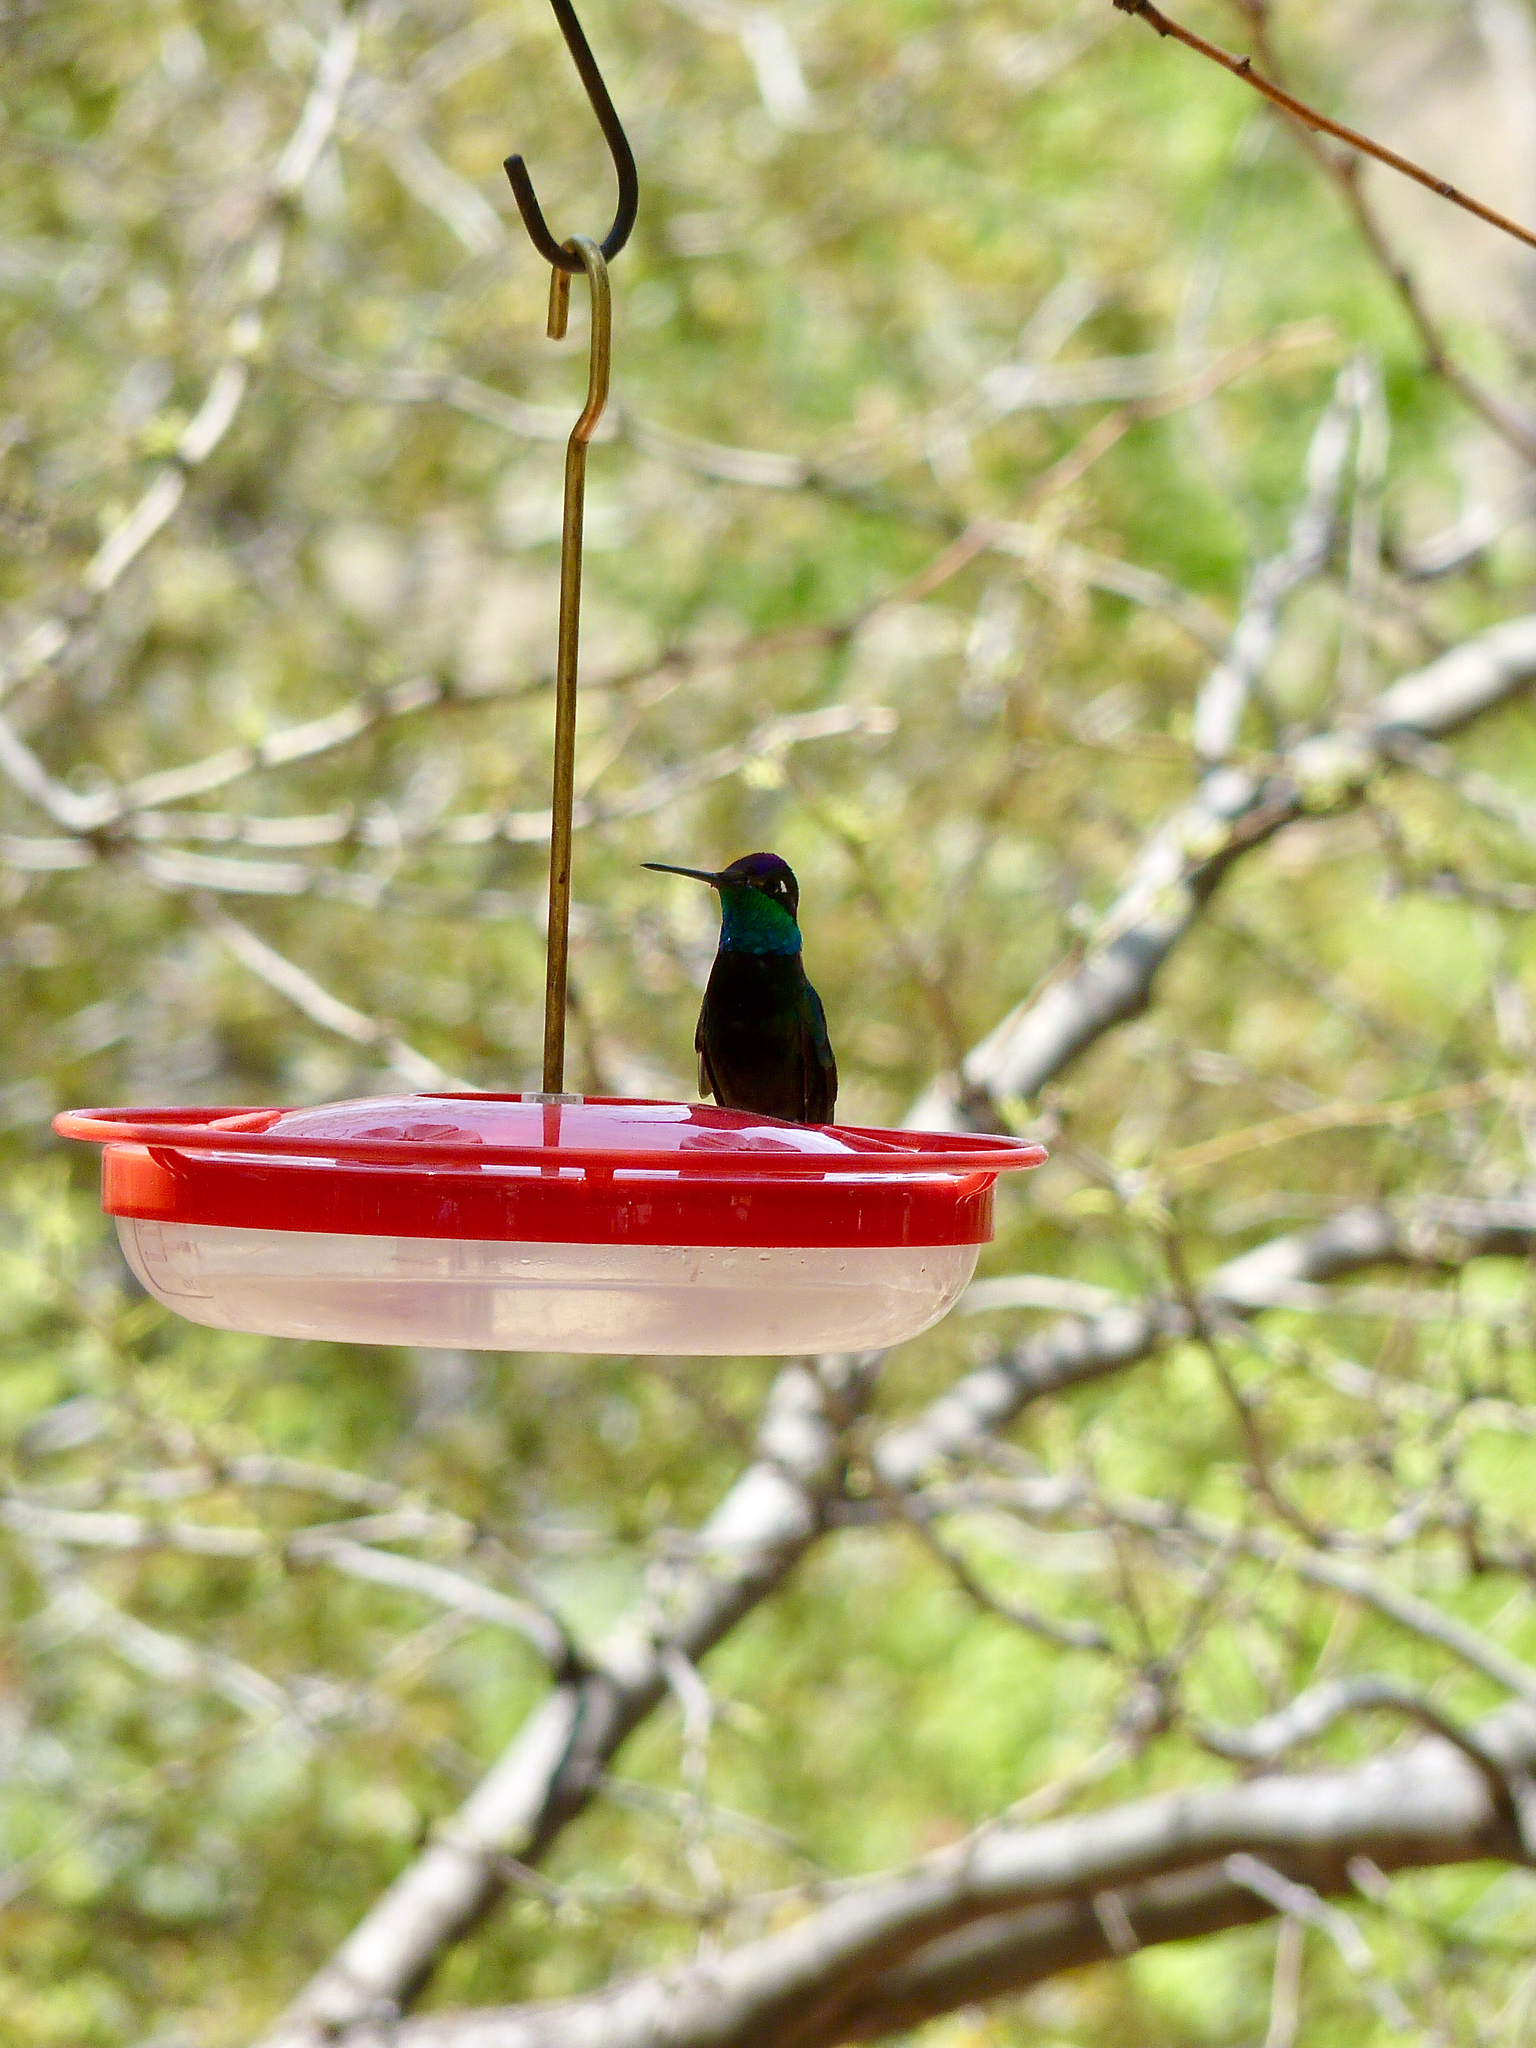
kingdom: Animalia
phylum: Chordata
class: Aves
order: Apodiformes
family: Trochilidae
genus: Eugenes
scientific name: Eugenes fulgens
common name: Magnificent hummingbird
